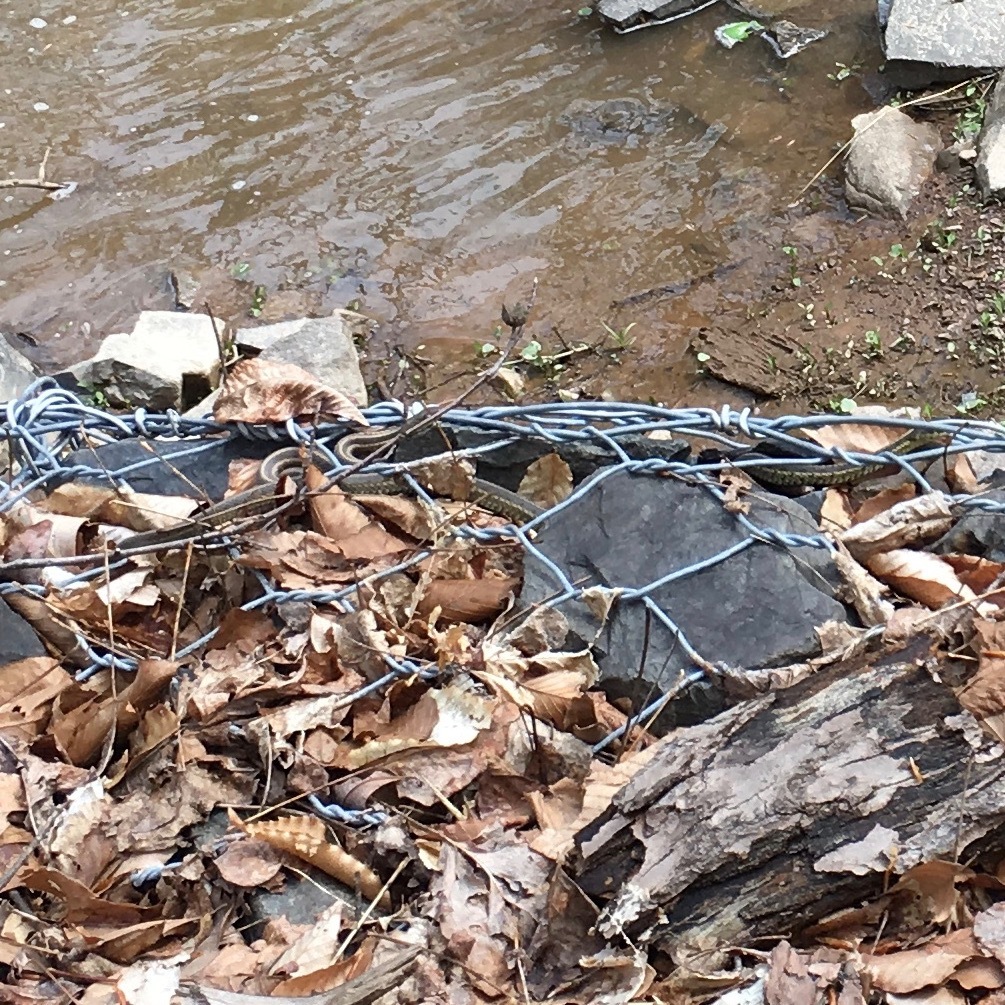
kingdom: Animalia
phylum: Chordata
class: Squamata
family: Colubridae
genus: Thamnophis
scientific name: Thamnophis sirtalis
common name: Common garter snake
